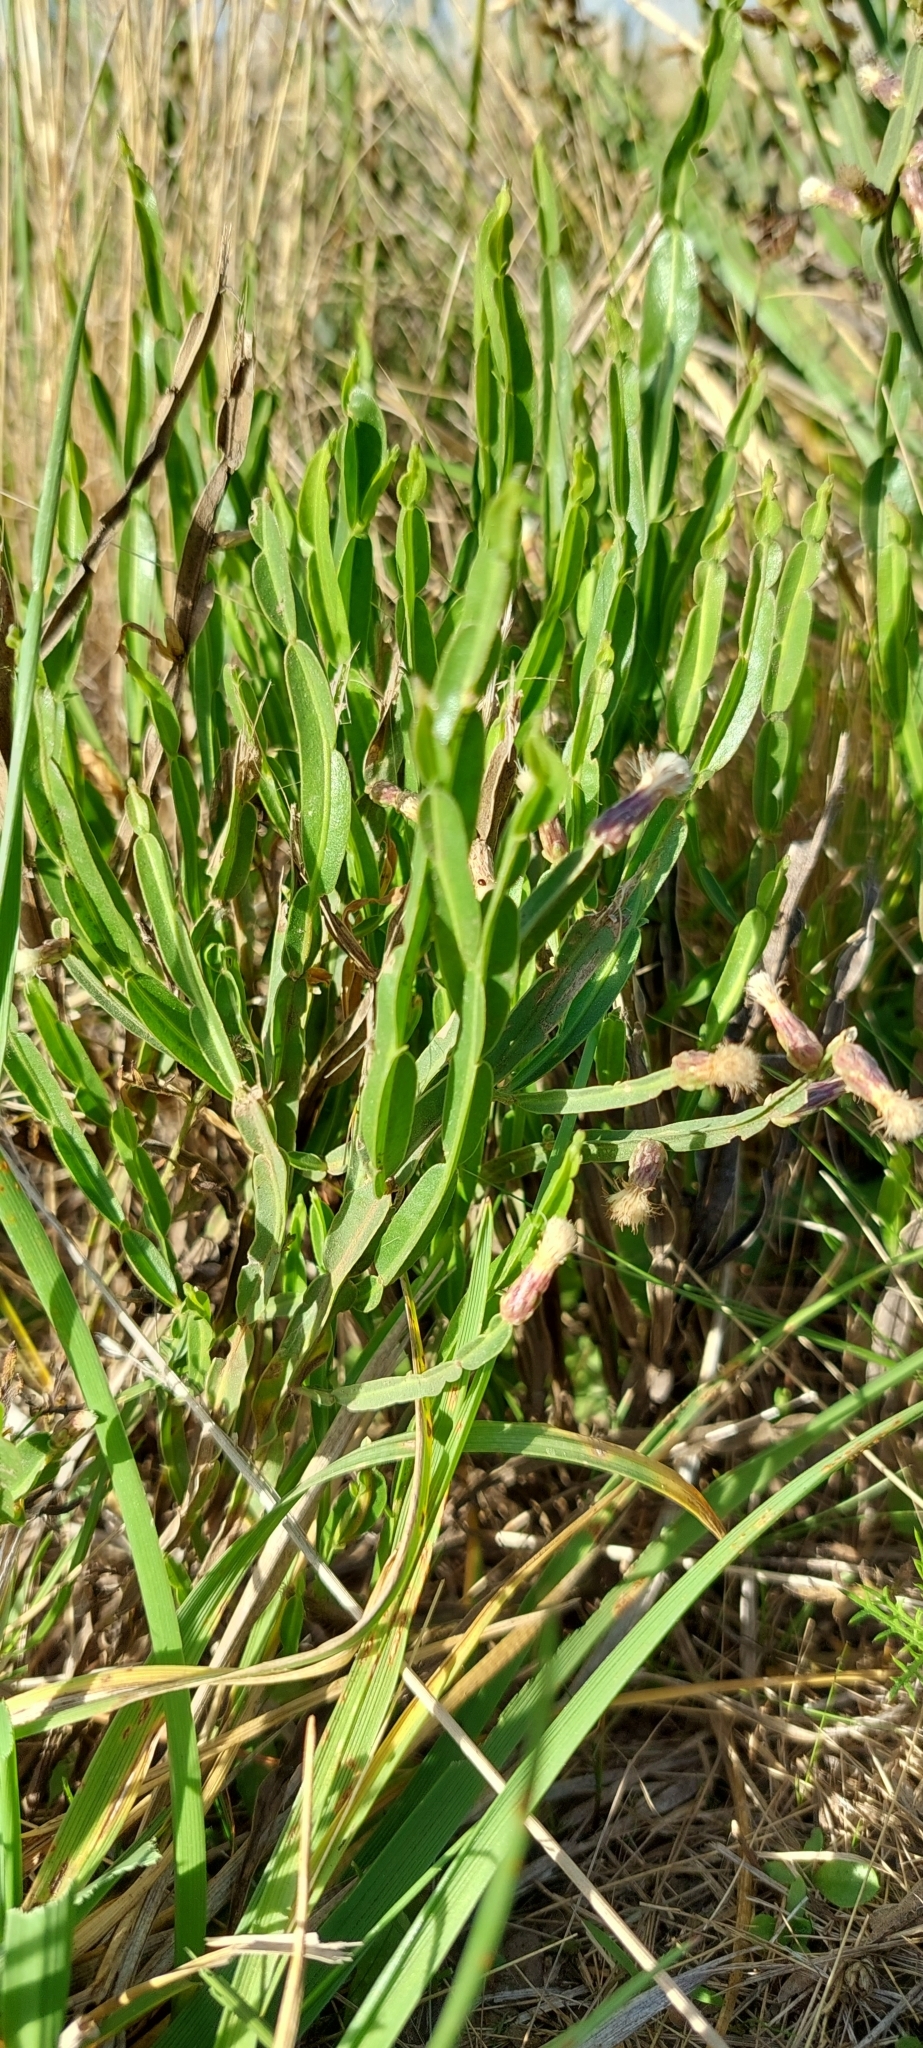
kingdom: Plantae
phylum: Tracheophyta
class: Magnoliopsida
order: Asterales
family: Asteraceae
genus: Baccharis
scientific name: Baccharis trimera
